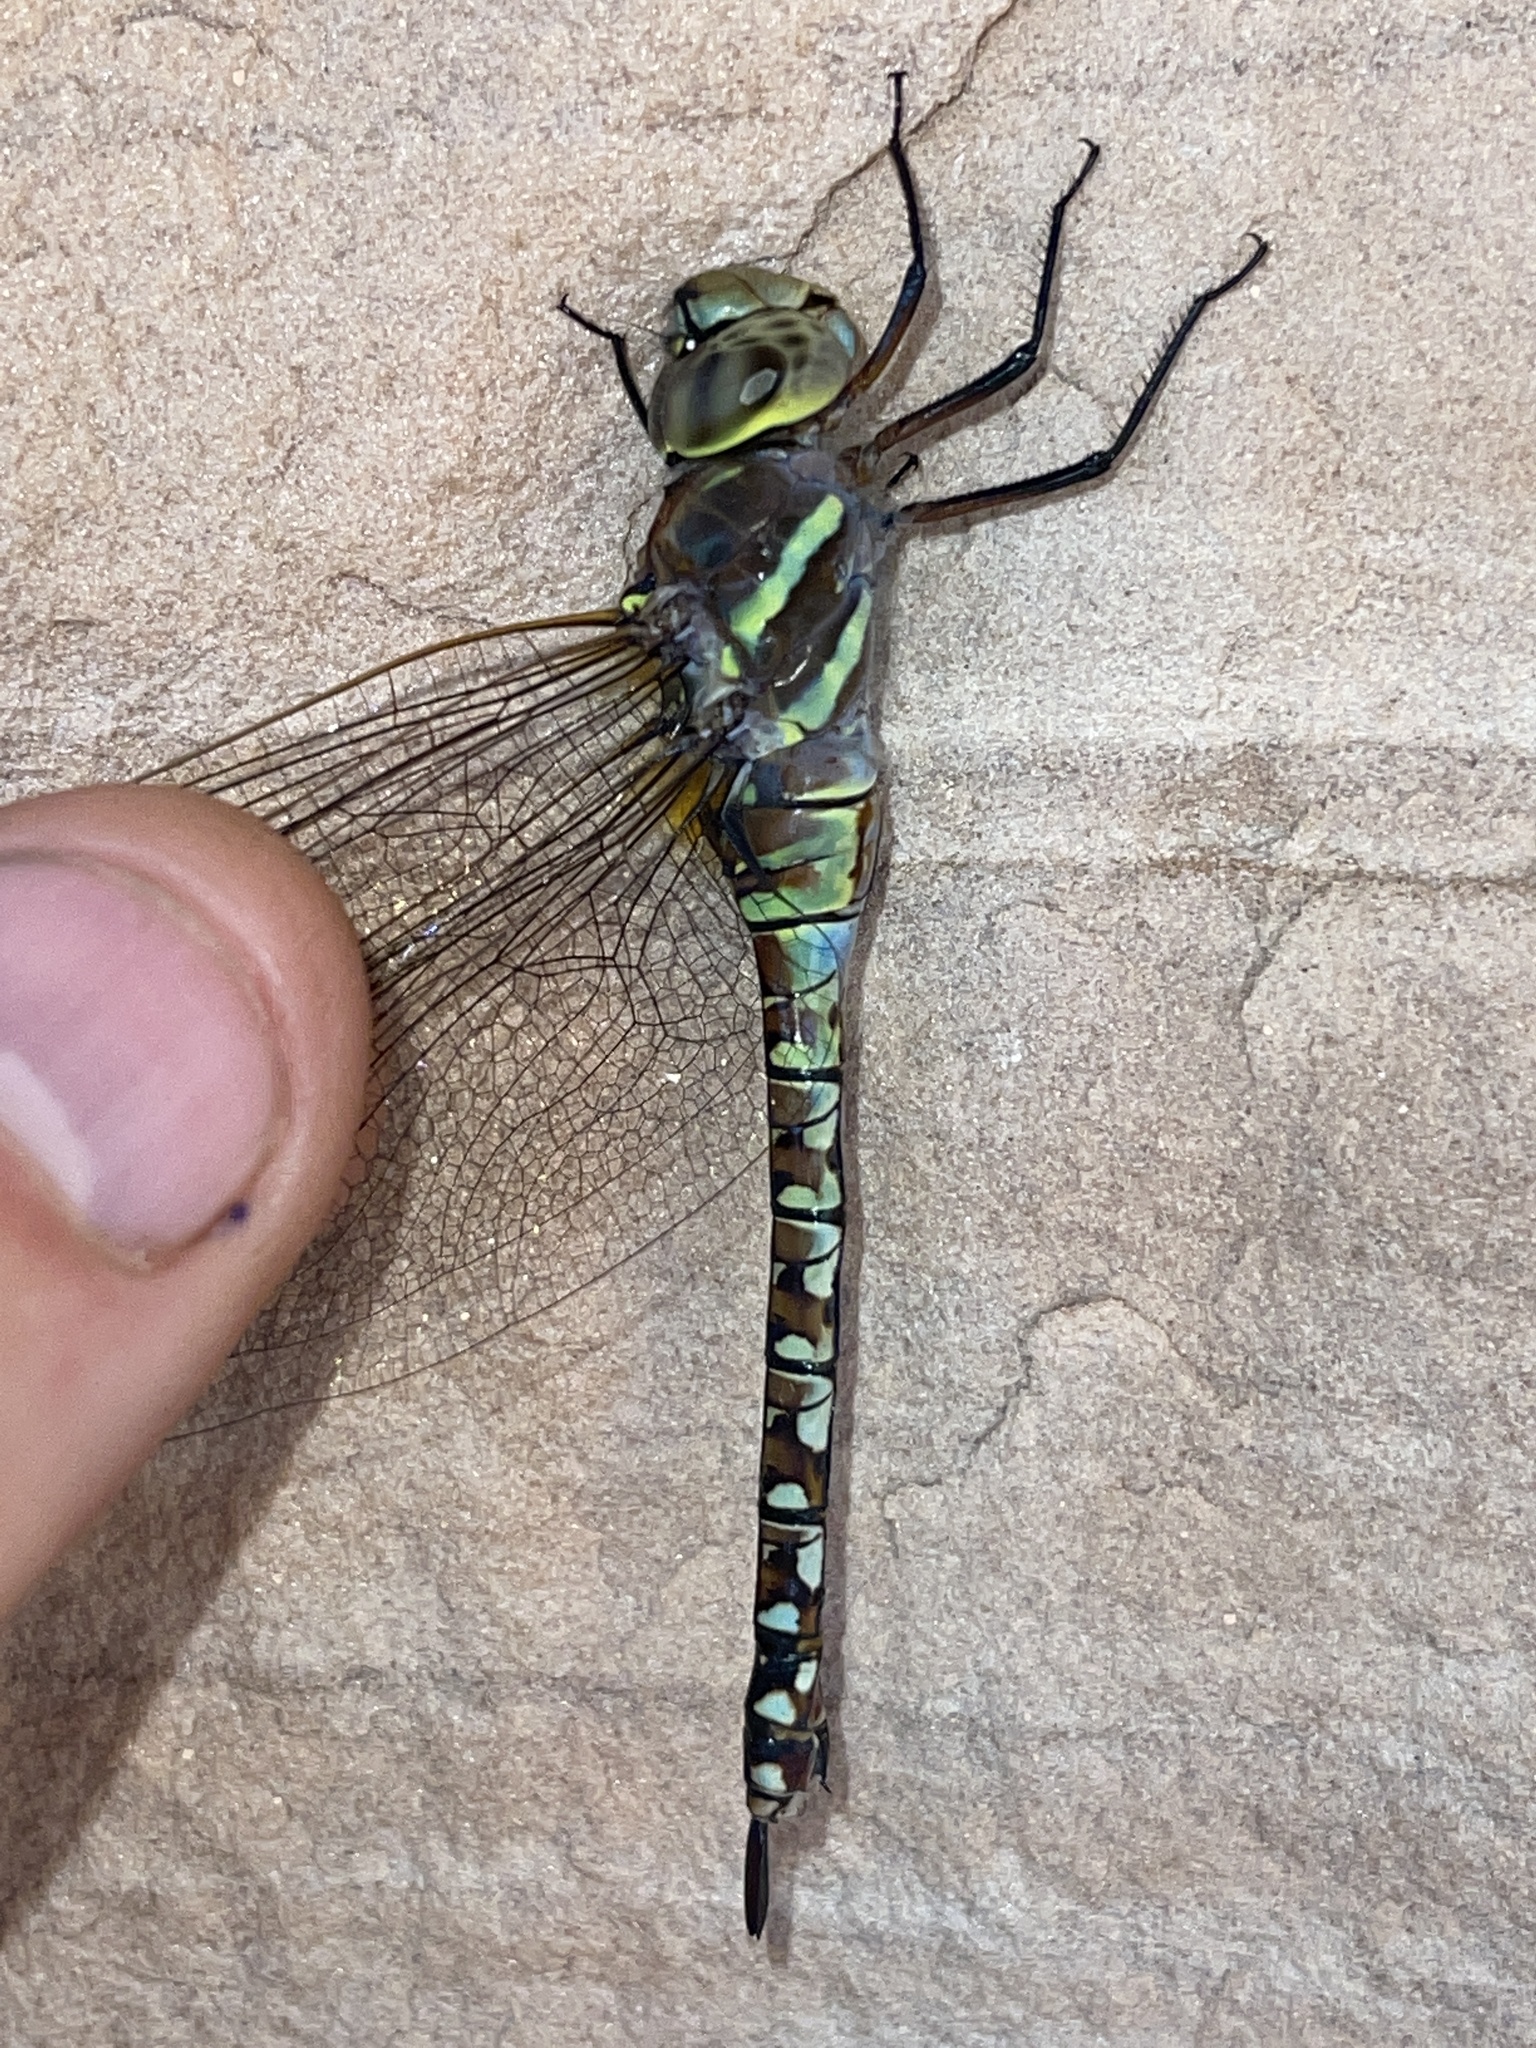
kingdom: Animalia
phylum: Arthropoda
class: Insecta
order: Odonata
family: Aeshnidae
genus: Rhionaeschna
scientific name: Rhionaeschna multicolor
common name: Blue-eyed darner
